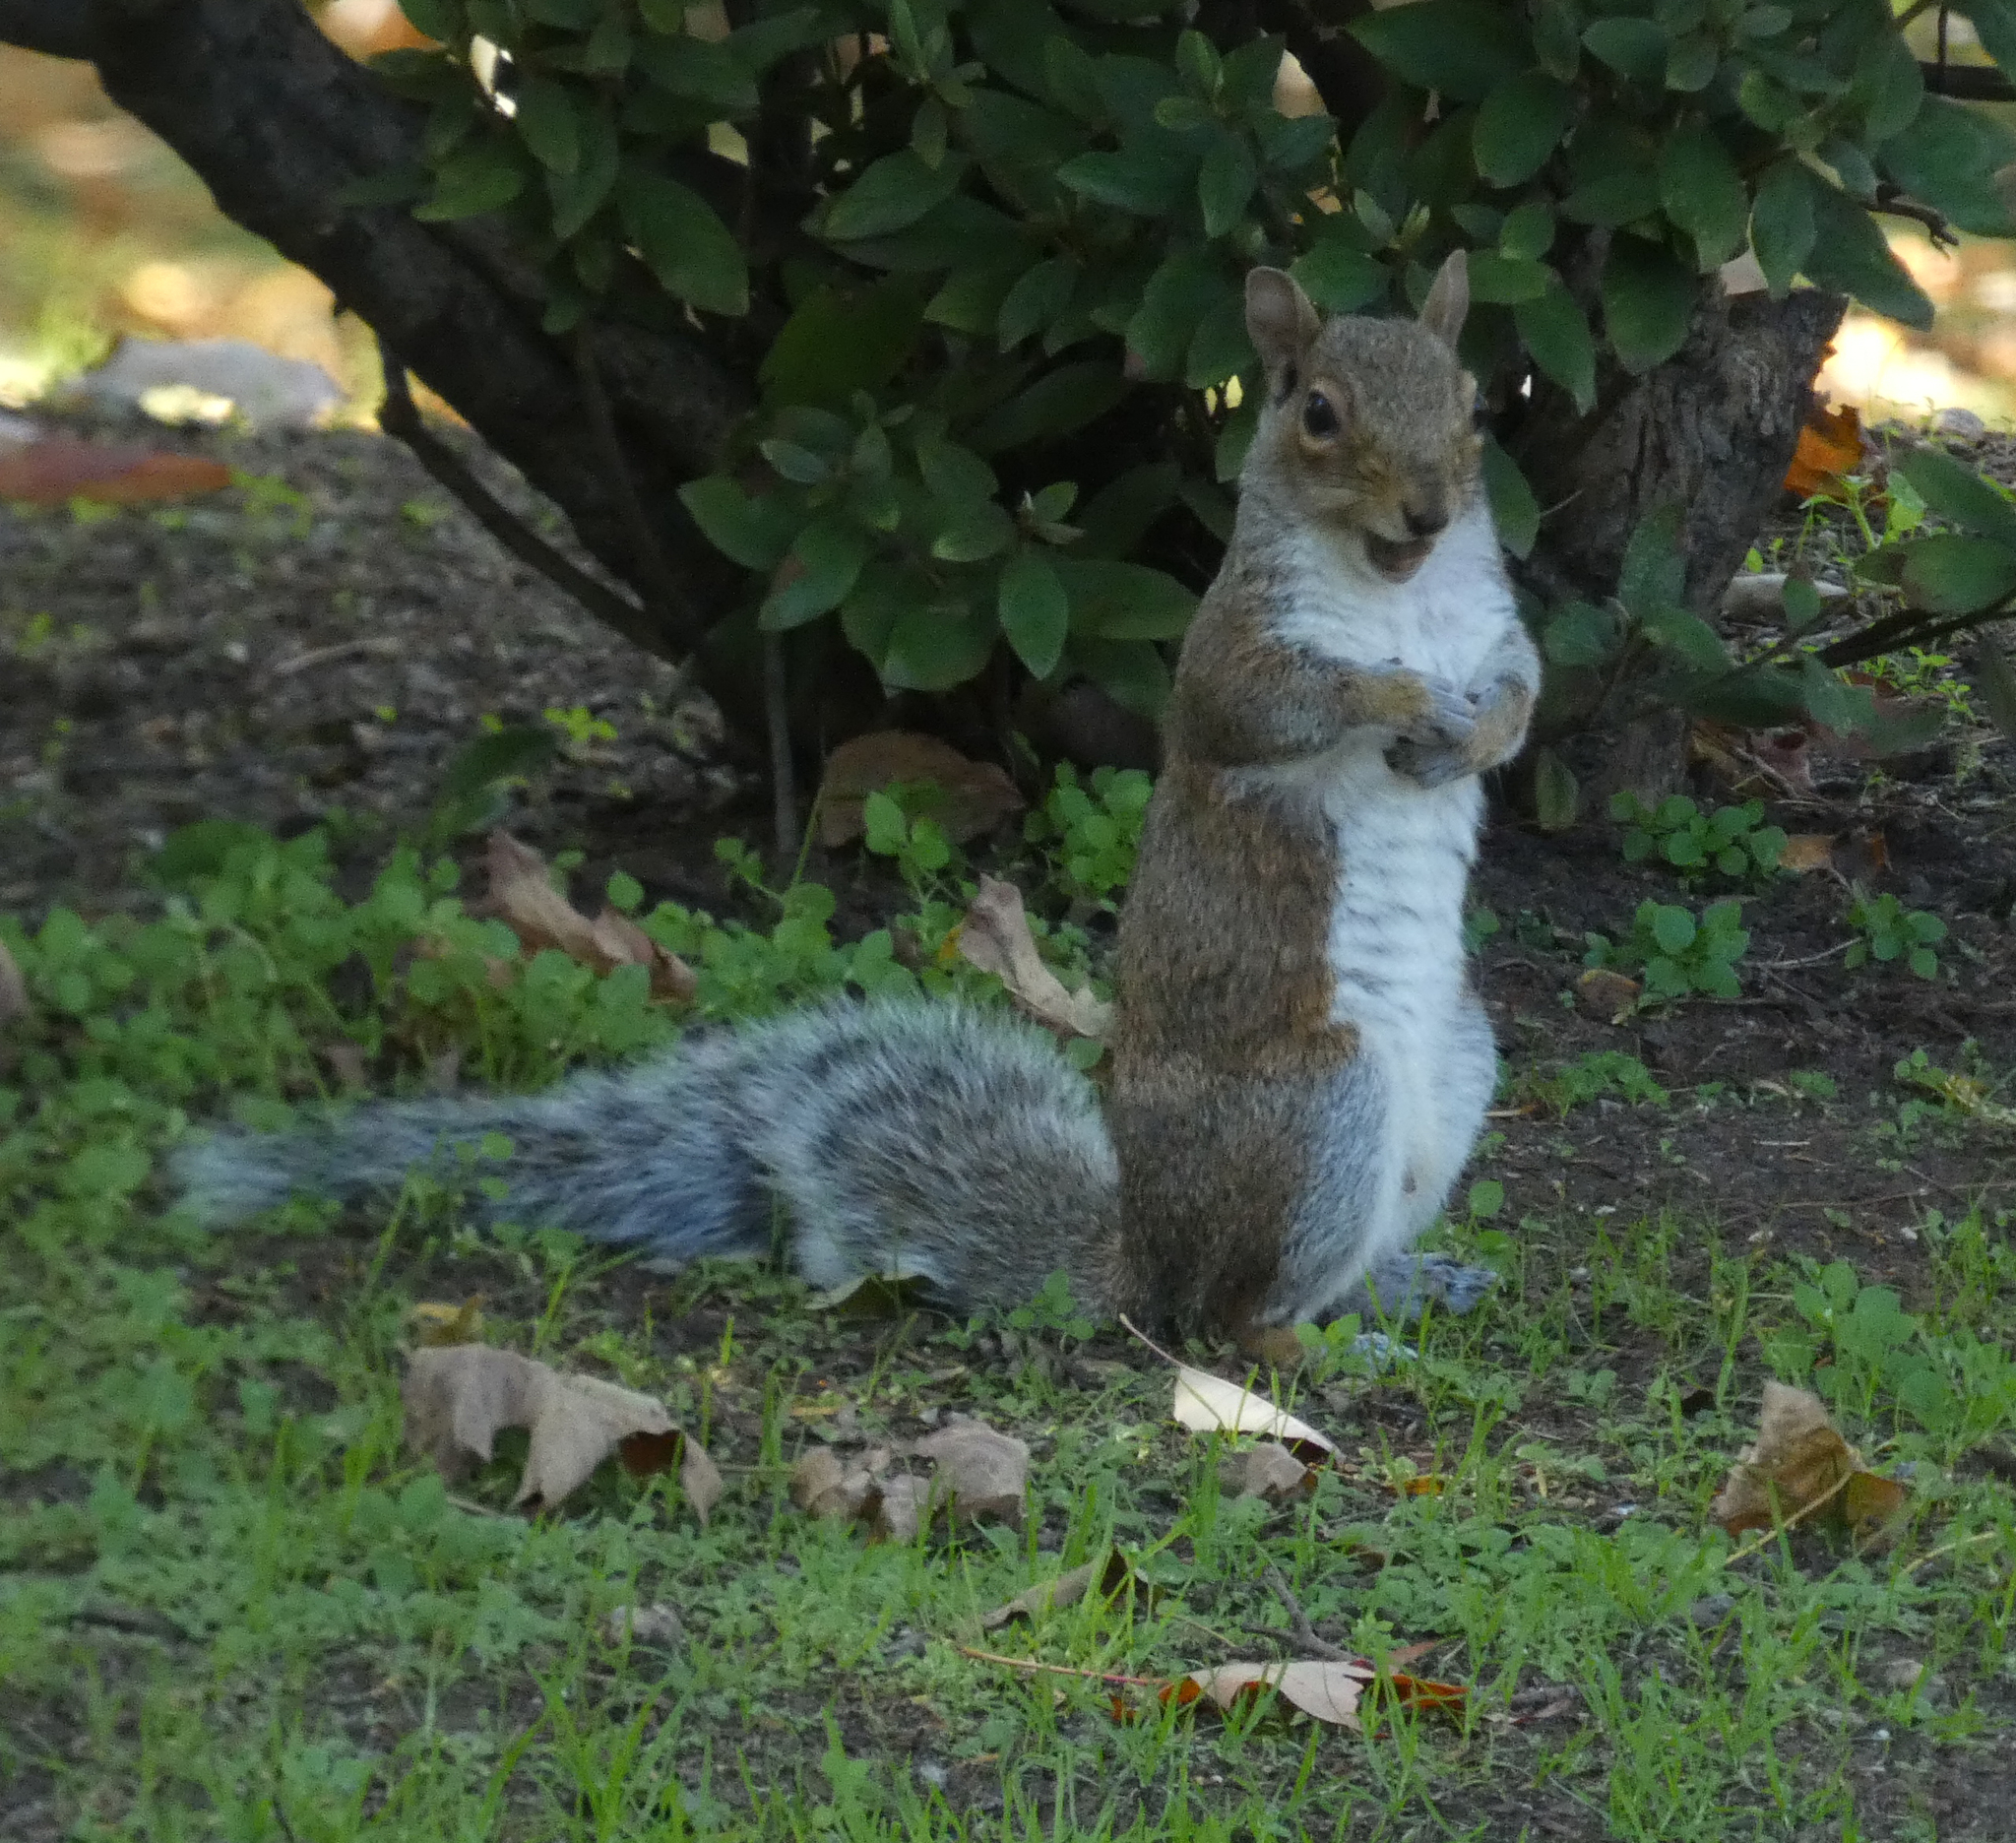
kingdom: Animalia
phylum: Chordata
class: Mammalia
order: Rodentia
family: Sciuridae
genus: Sciurus
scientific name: Sciurus carolinensis
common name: Eastern gray squirrel
